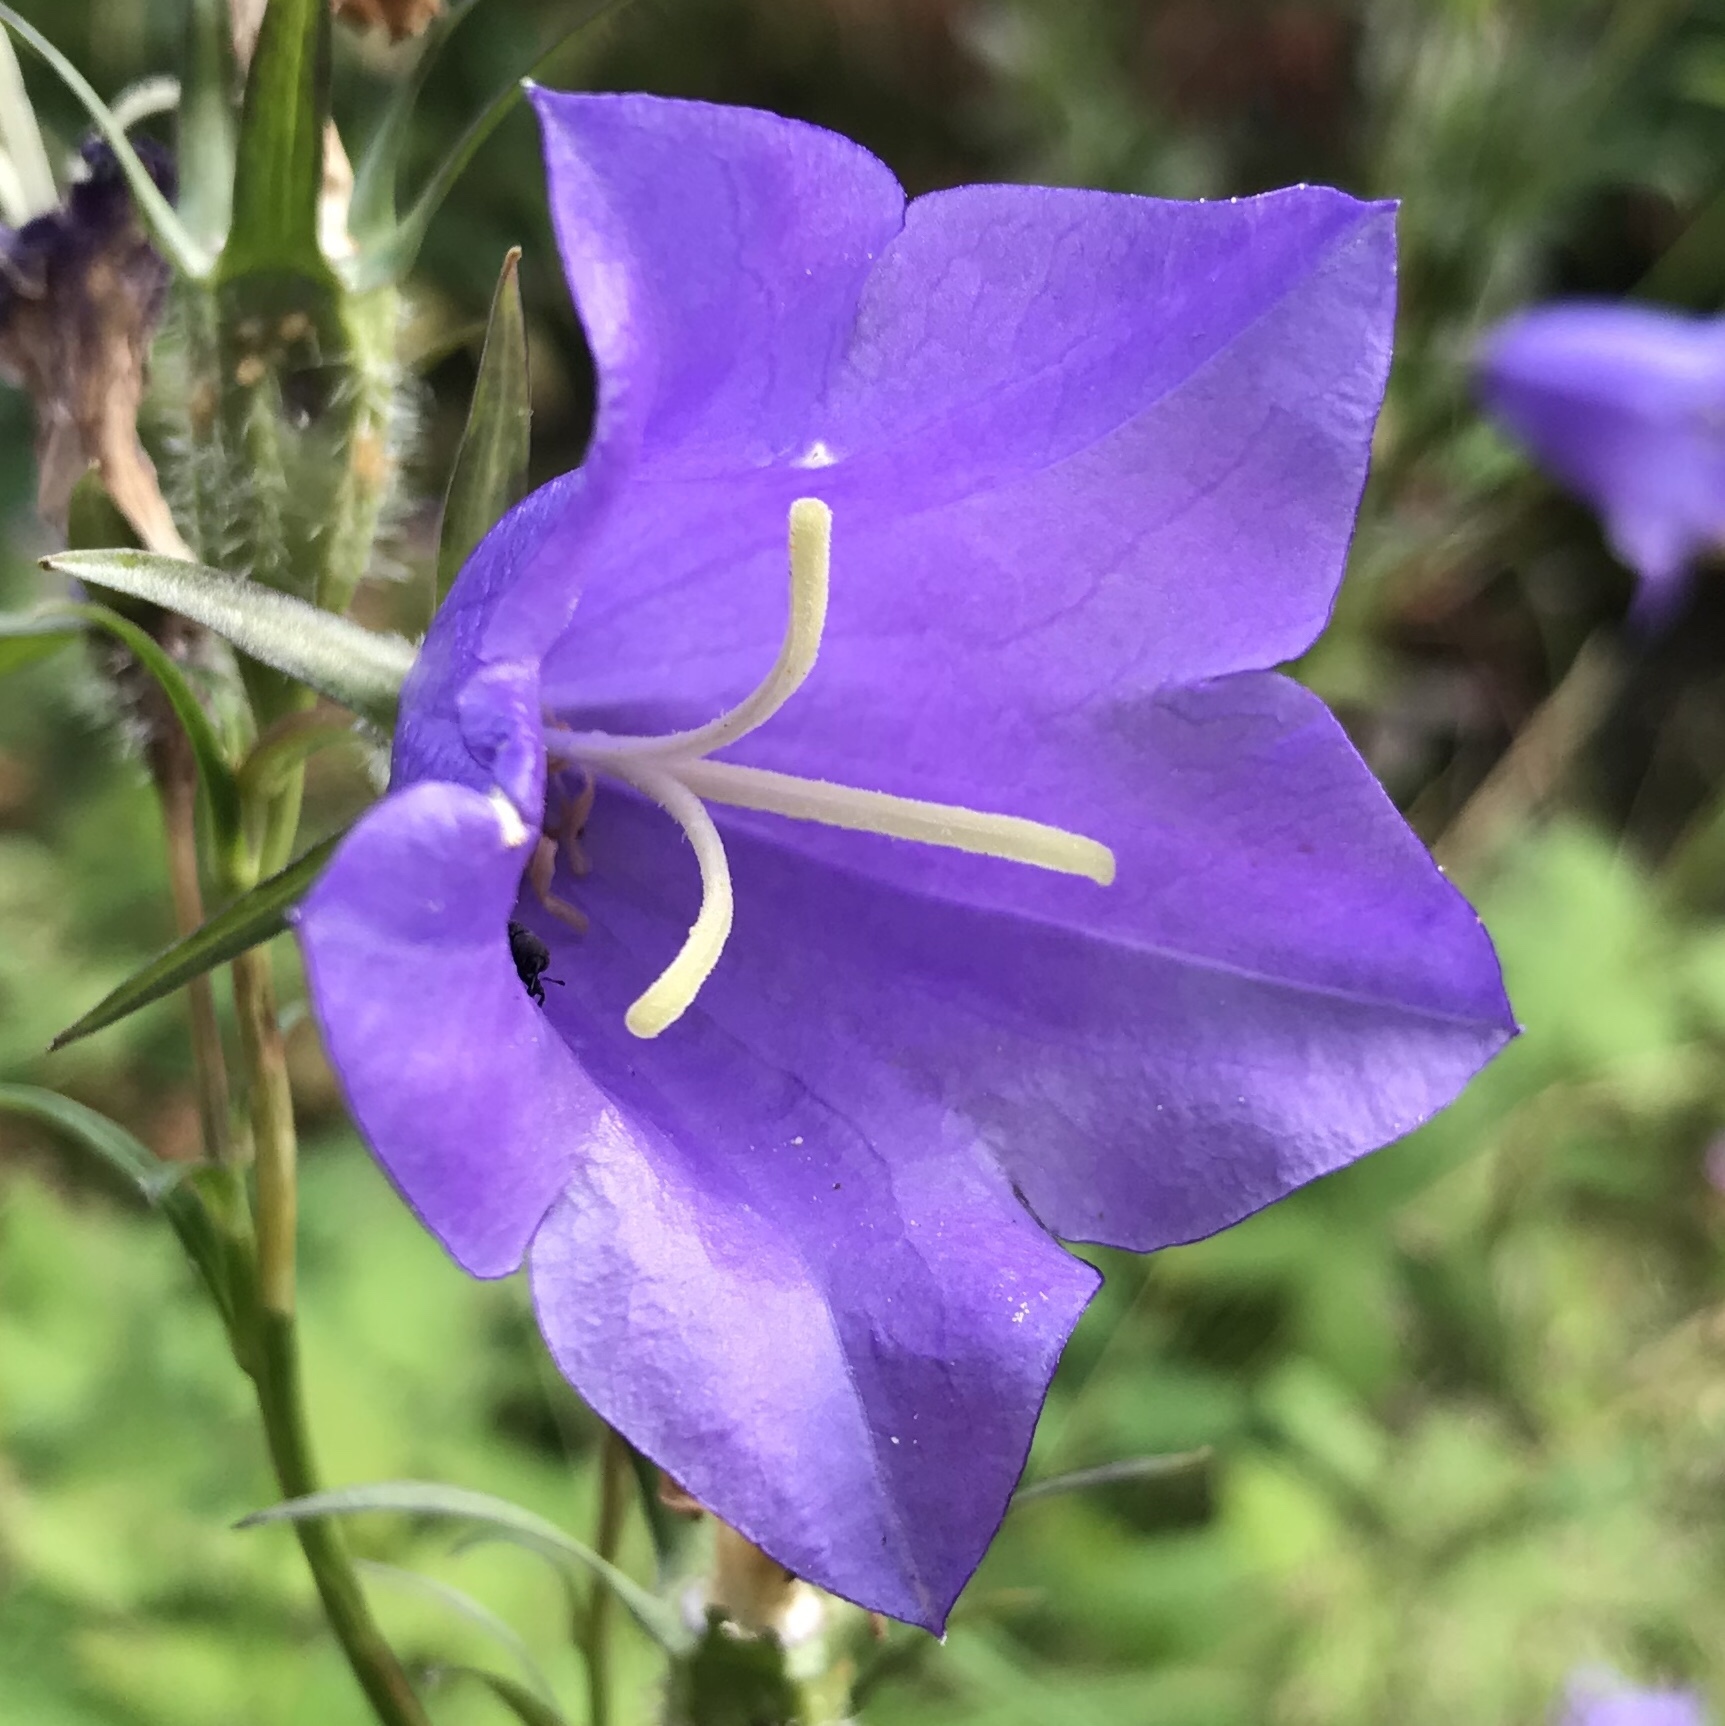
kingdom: Plantae
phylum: Tracheophyta
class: Magnoliopsida
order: Asterales
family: Campanulaceae
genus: Campanula
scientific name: Campanula persicifolia
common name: Peach-leaved bellflower
